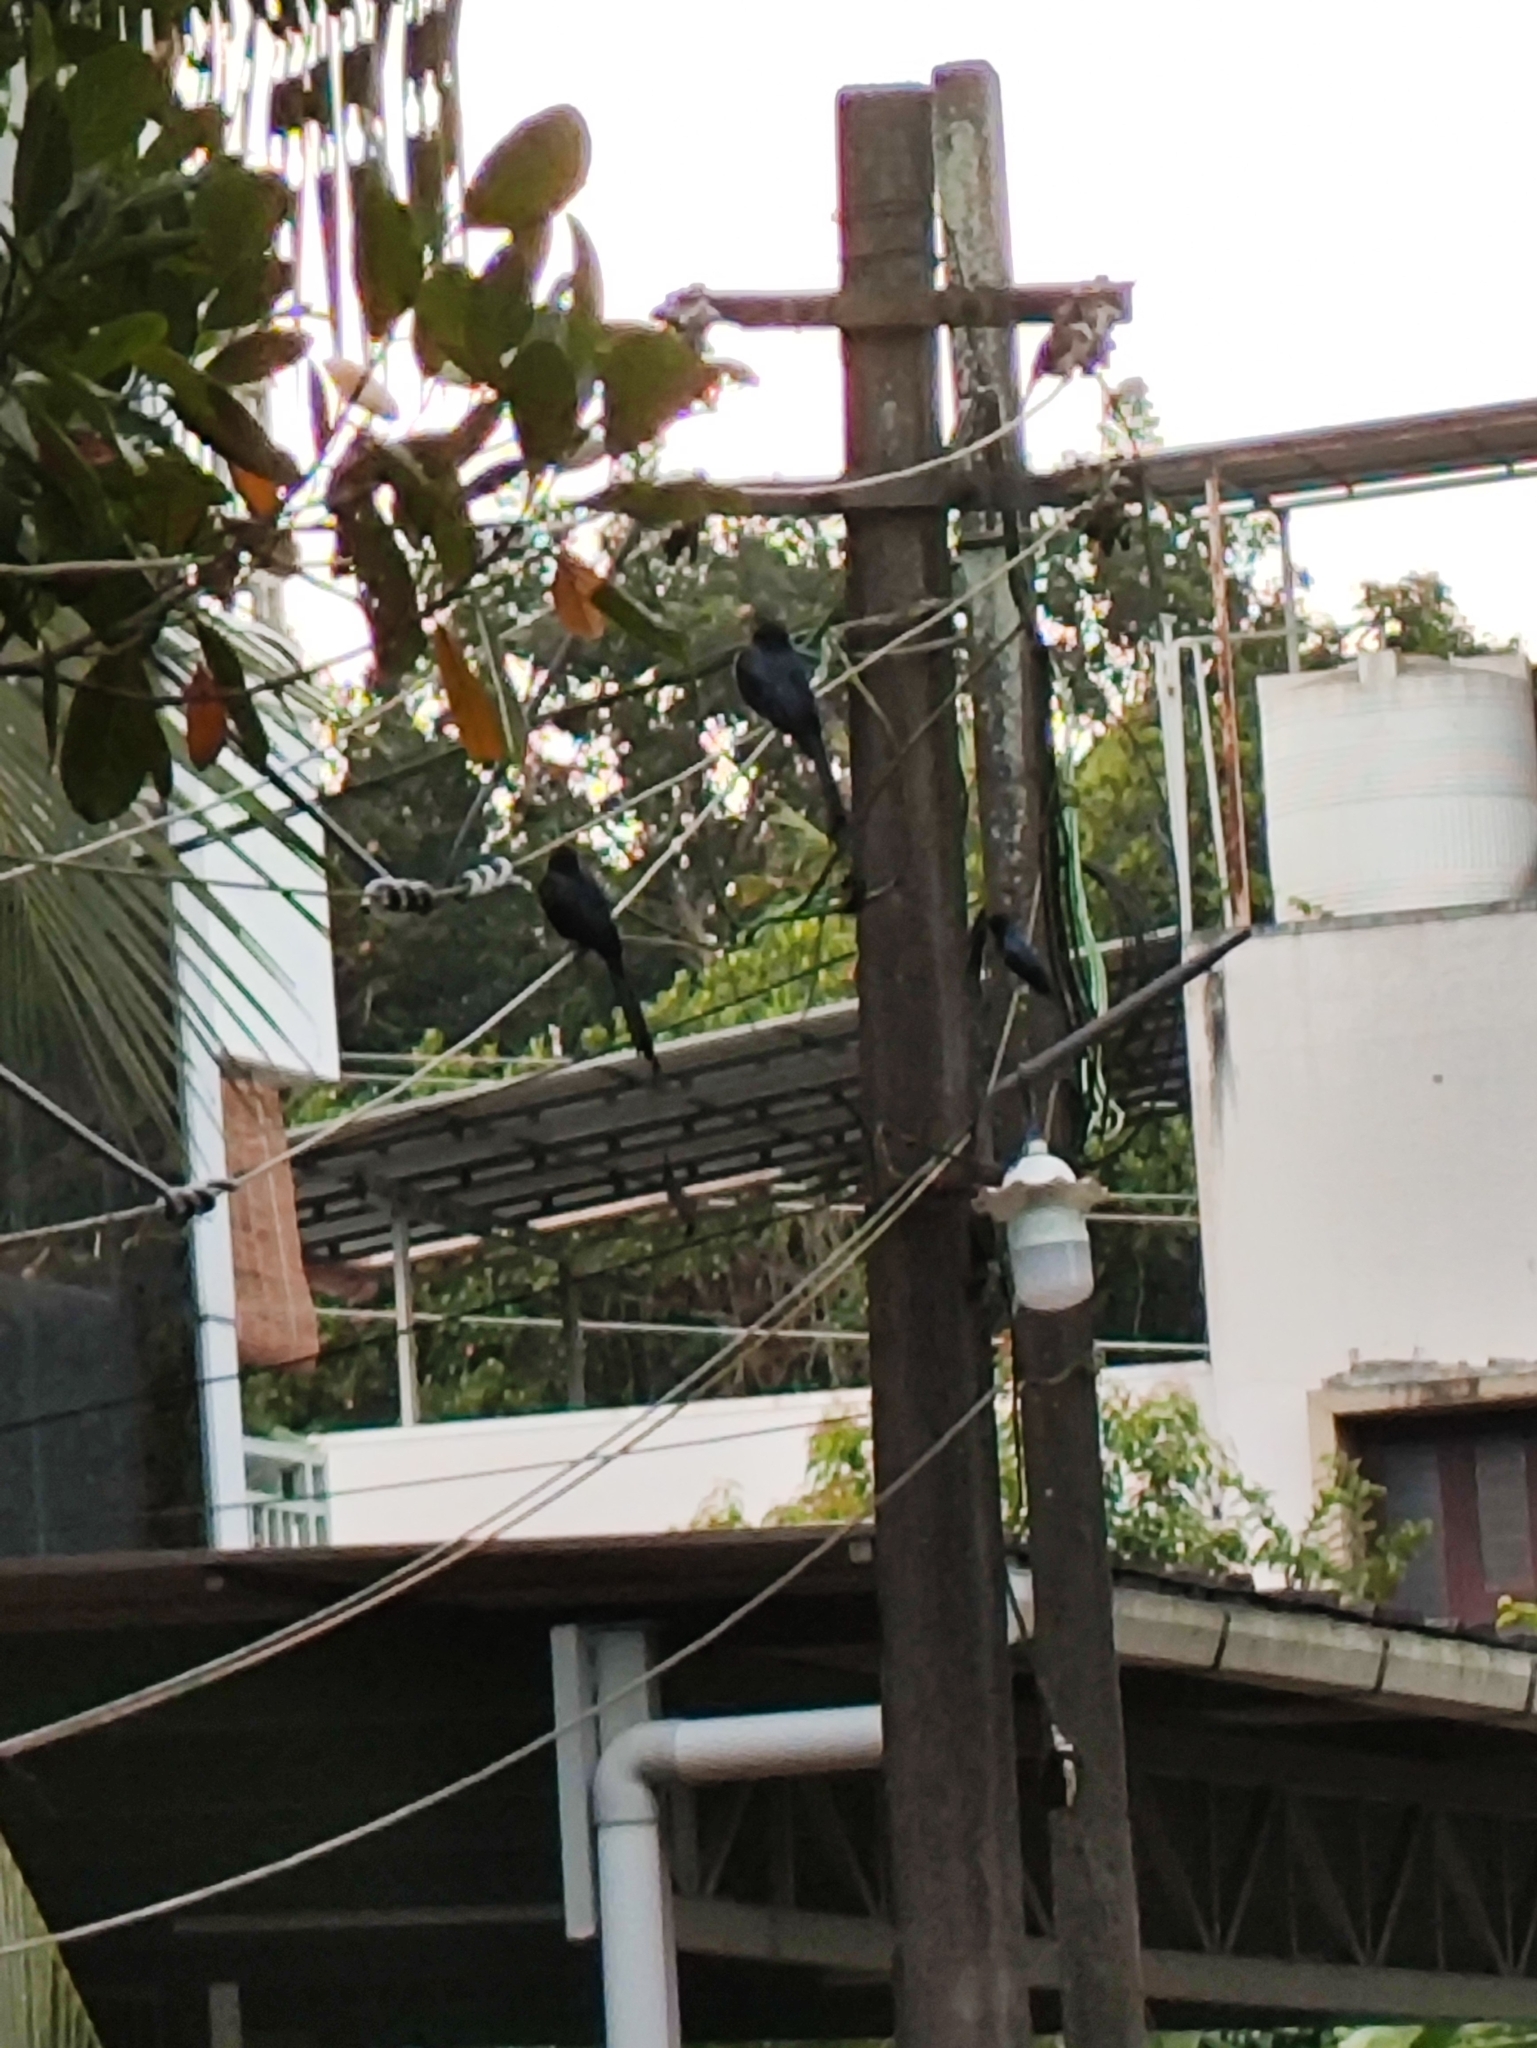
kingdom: Animalia
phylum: Chordata
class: Aves
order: Passeriformes
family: Dicruridae
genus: Dicrurus
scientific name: Dicrurus paradiseus
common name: Greater racket-tailed drongo
